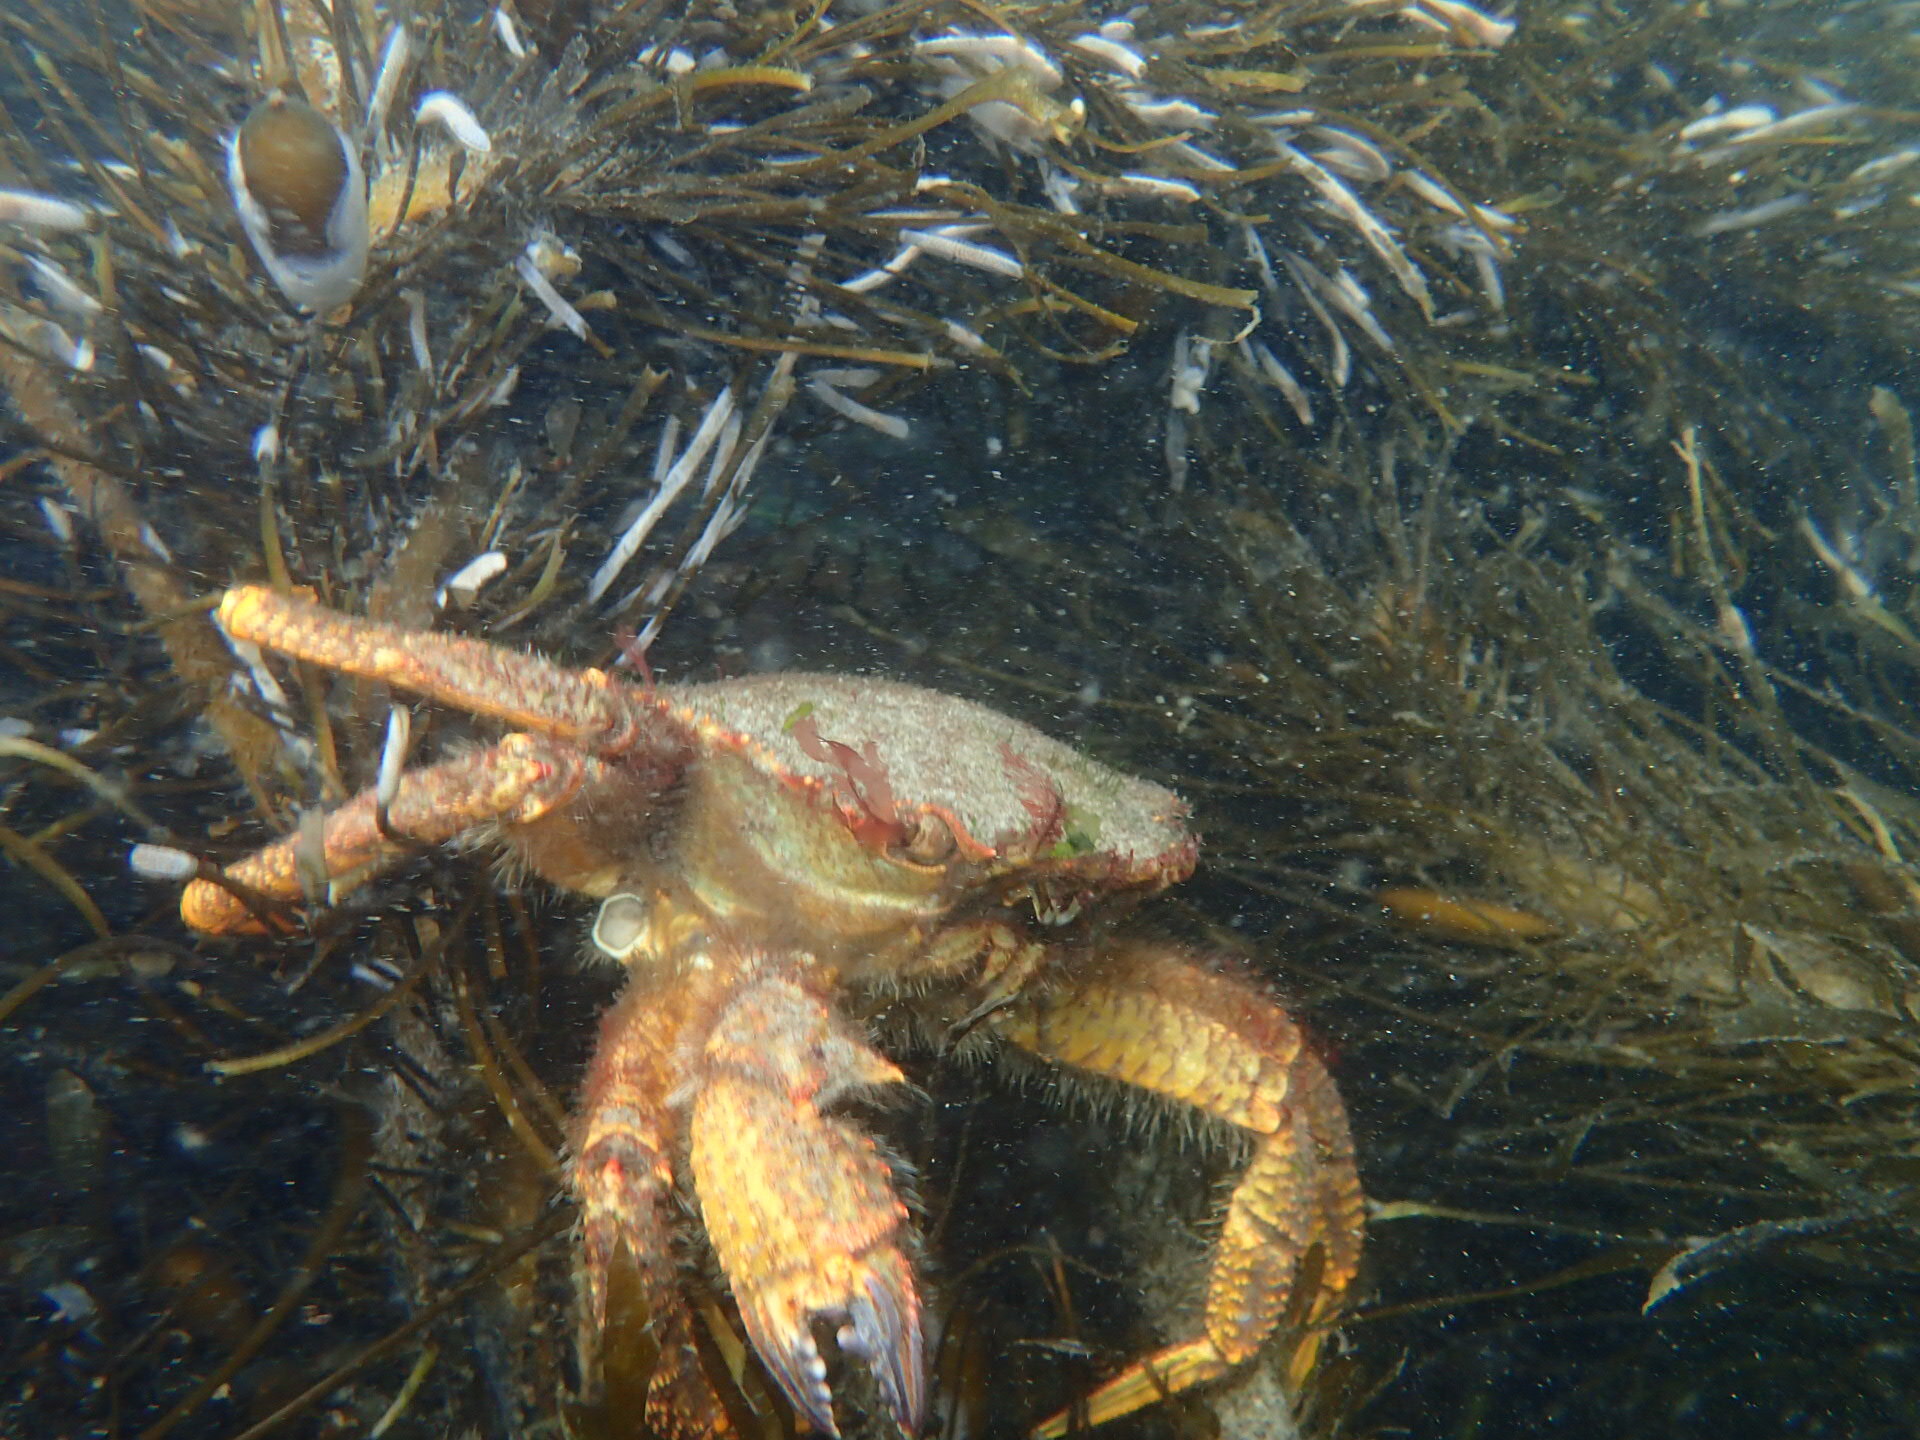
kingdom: Animalia
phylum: Arthropoda
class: Malacostraca
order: Decapoda
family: Cheiragonidae
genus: Telmessus
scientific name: Telmessus cheiragonus
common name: Helmet crab
